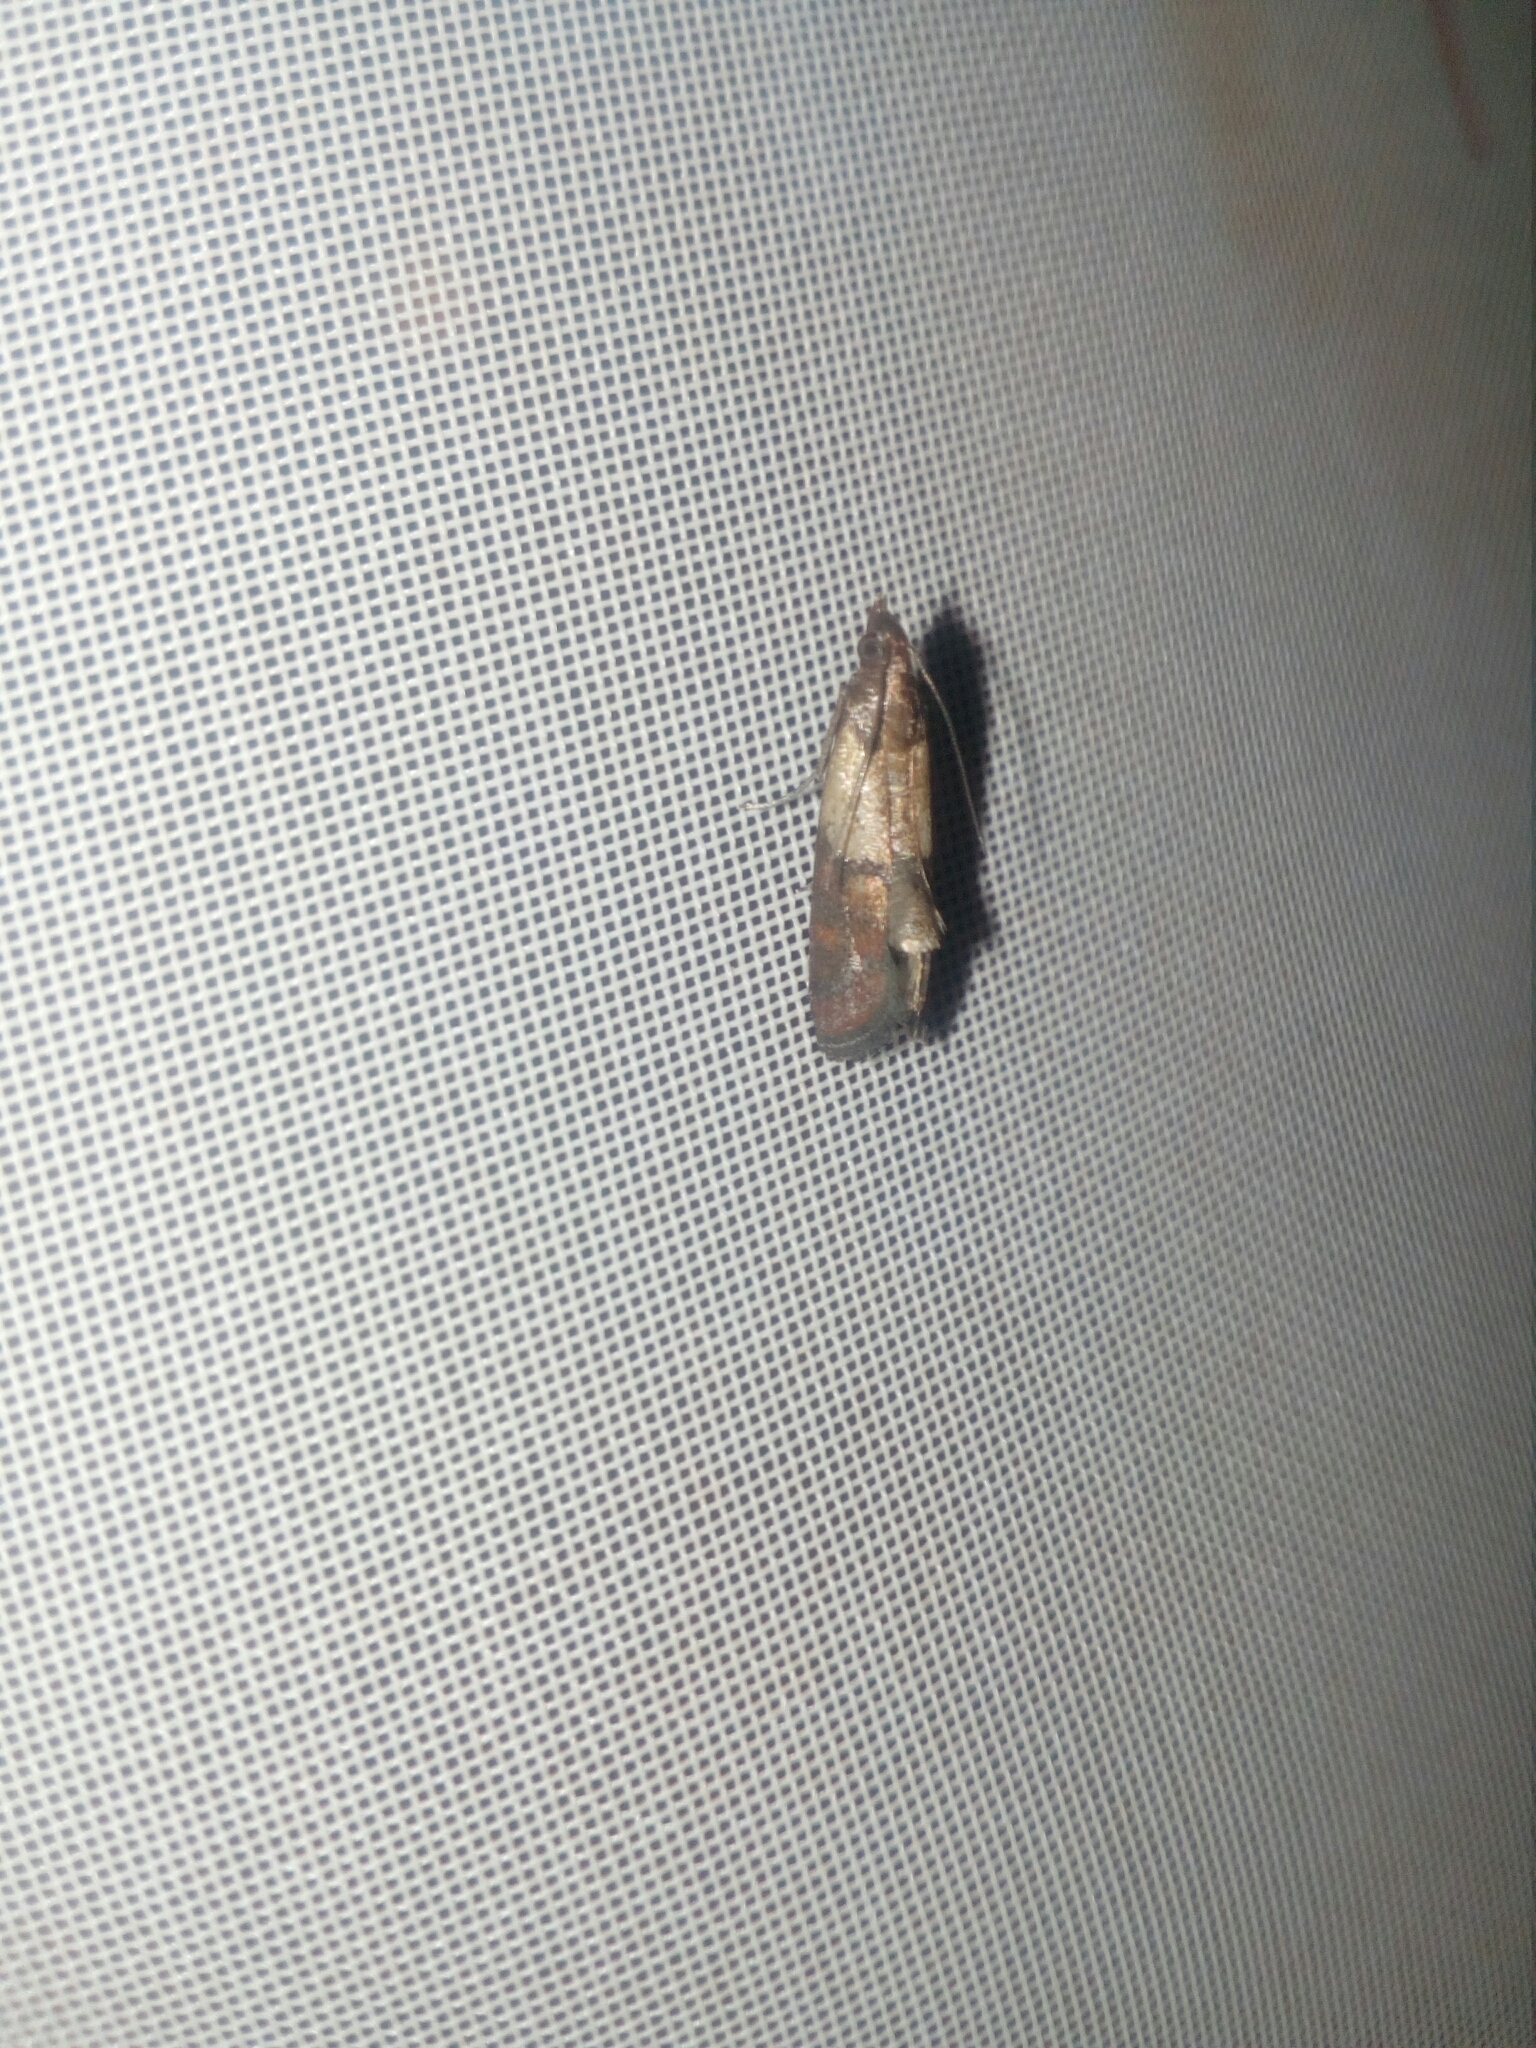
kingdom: Animalia
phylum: Arthropoda
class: Insecta
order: Lepidoptera
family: Pyralidae
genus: Plodia
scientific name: Plodia interpunctella
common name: Indian meal moth
